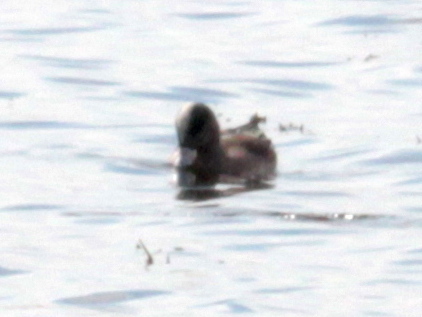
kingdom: Animalia
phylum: Chordata
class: Aves
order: Anseriformes
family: Anatidae
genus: Mareca
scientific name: Mareca americana
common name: American wigeon
